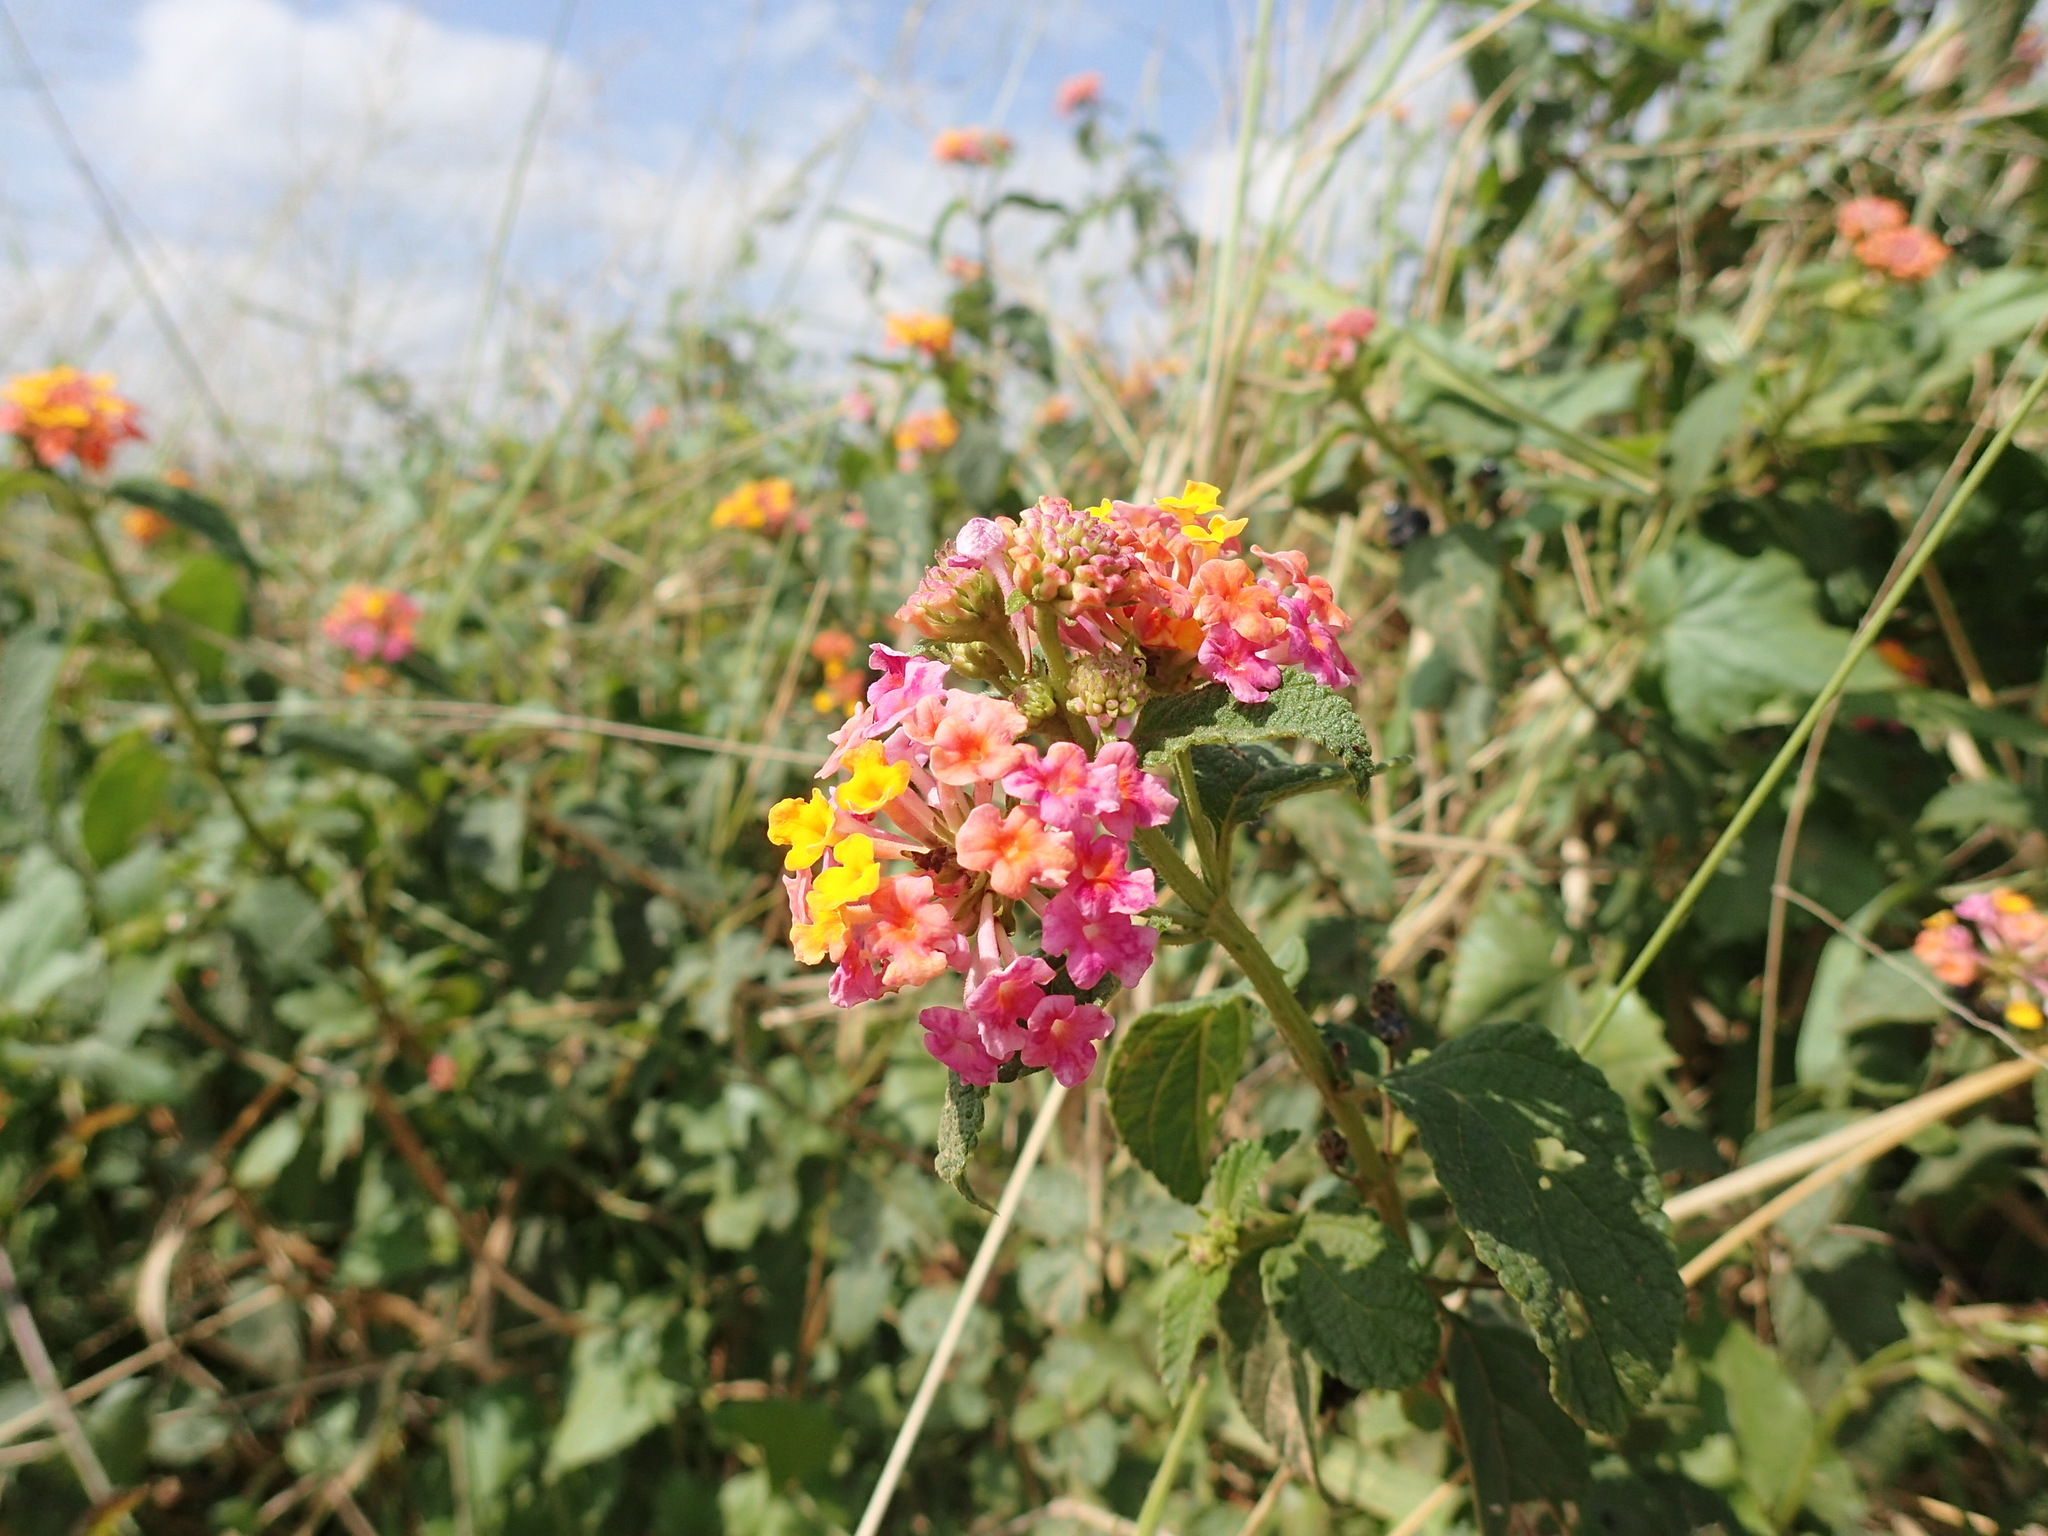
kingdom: Plantae
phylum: Tracheophyta
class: Magnoliopsida
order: Lamiales
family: Verbenaceae
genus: Lantana
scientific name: Lantana camara
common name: Lantana
